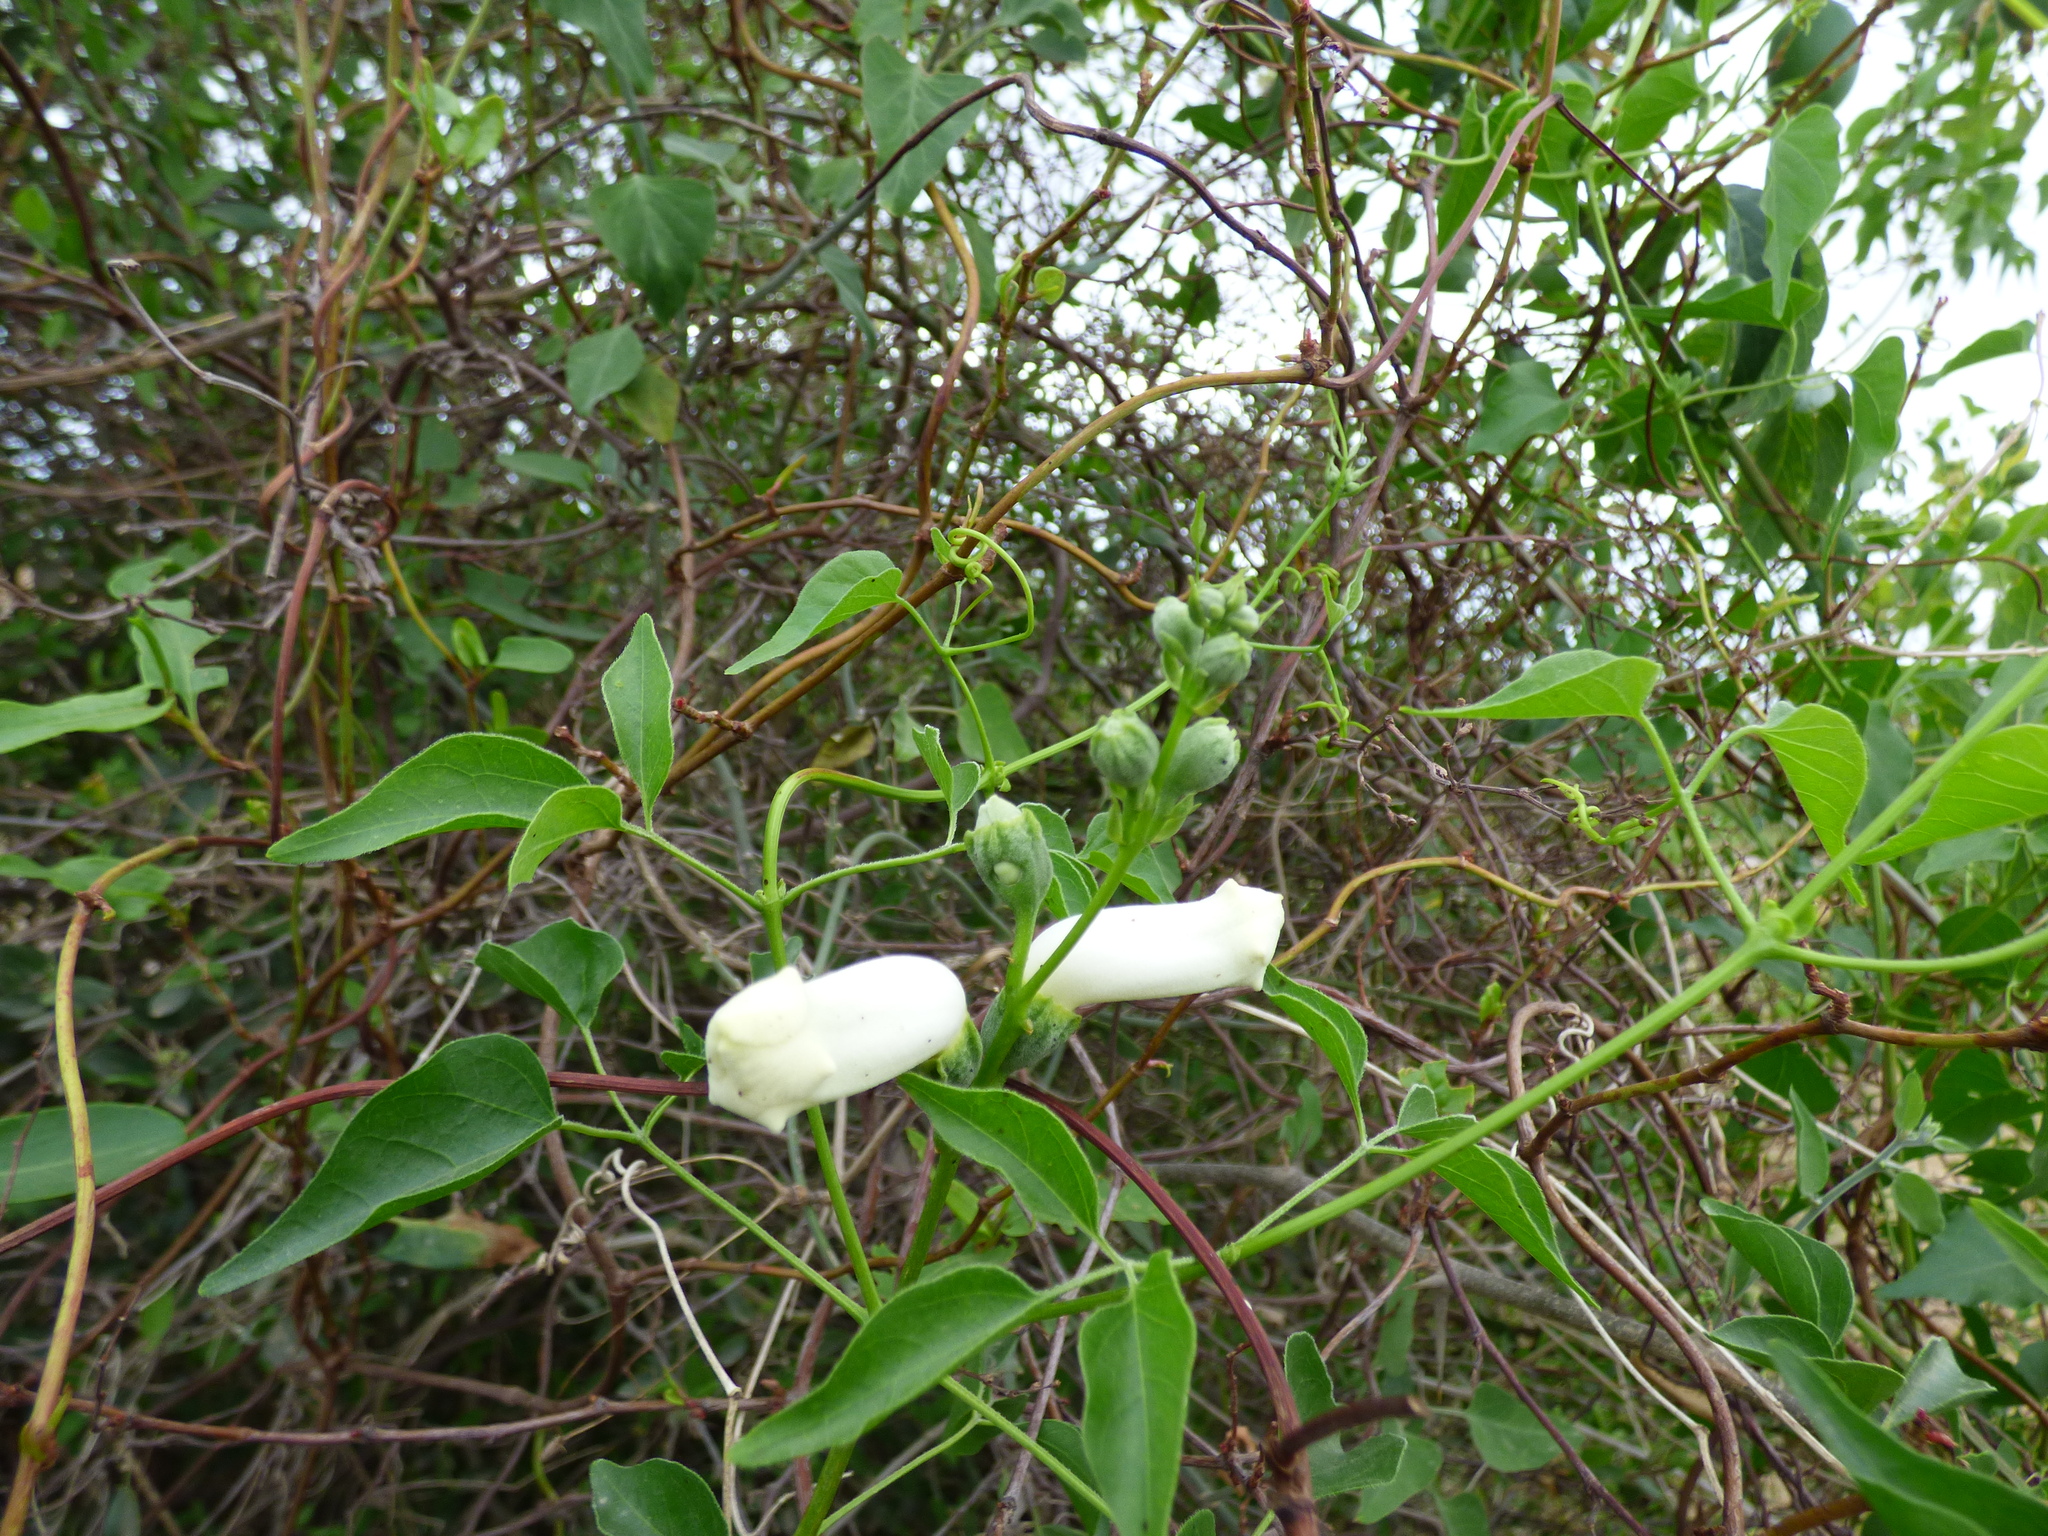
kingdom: Plantae
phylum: Tracheophyta
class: Magnoliopsida
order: Lamiales
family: Bignoniaceae
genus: Amphilophium
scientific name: Amphilophium carolinae
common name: Monkey's-comb
